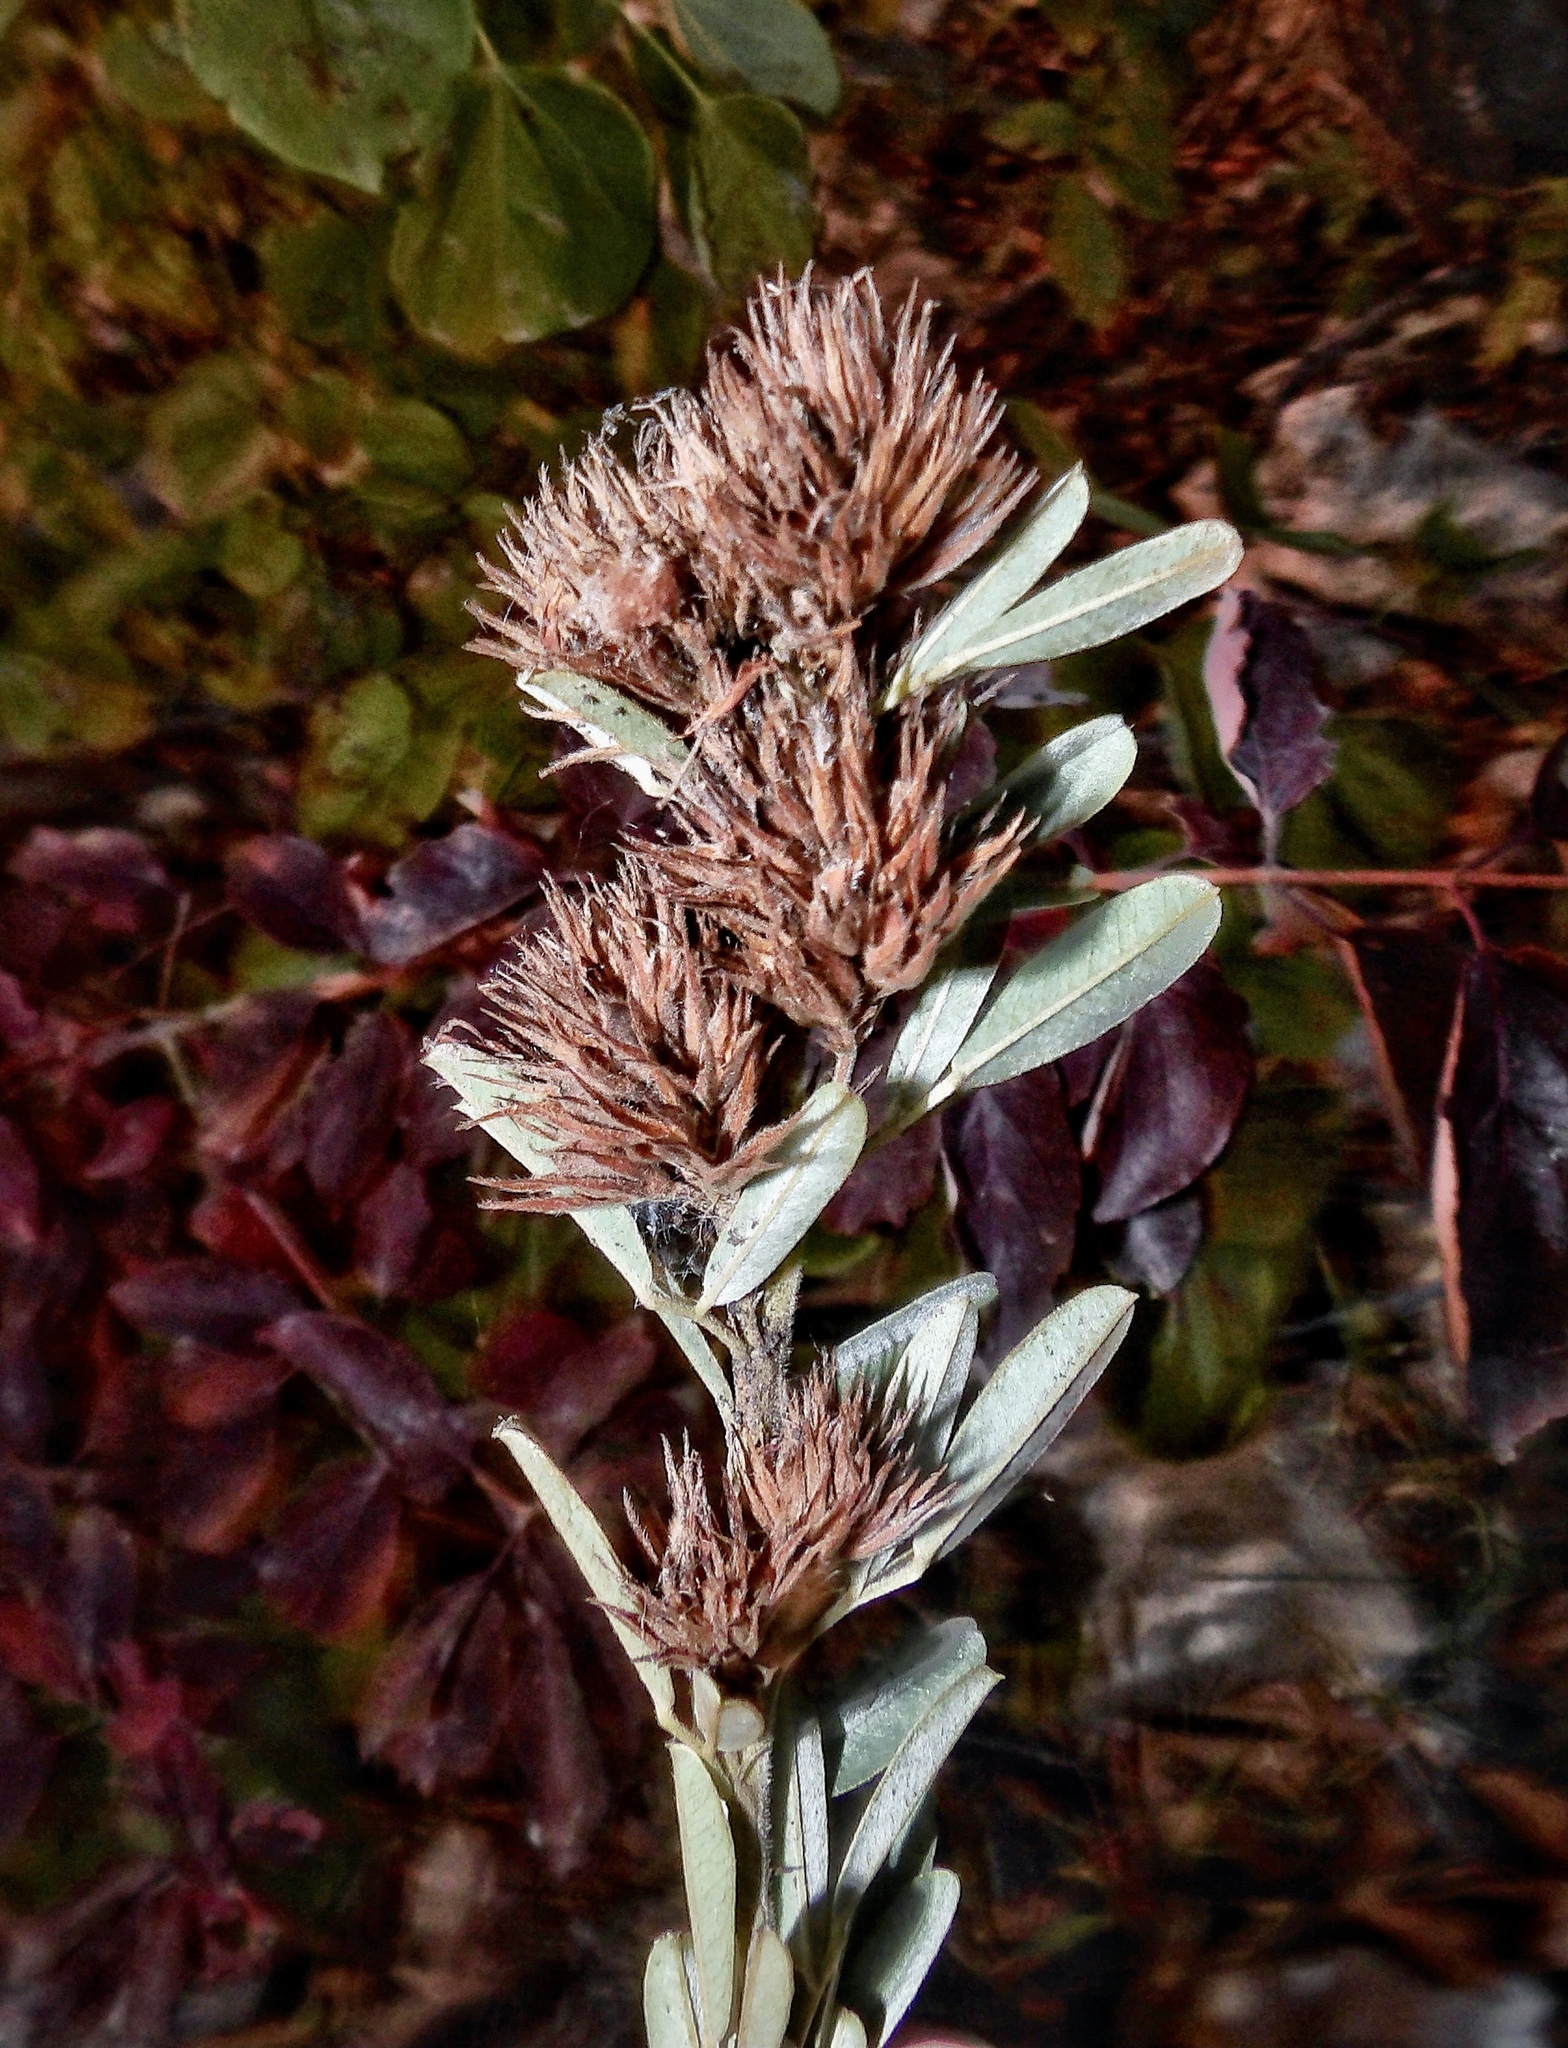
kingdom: Plantae
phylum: Tracheophyta
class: Magnoliopsida
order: Fabales
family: Fabaceae
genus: Lespedeza
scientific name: Lespedeza capitata
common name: Dusty clover
